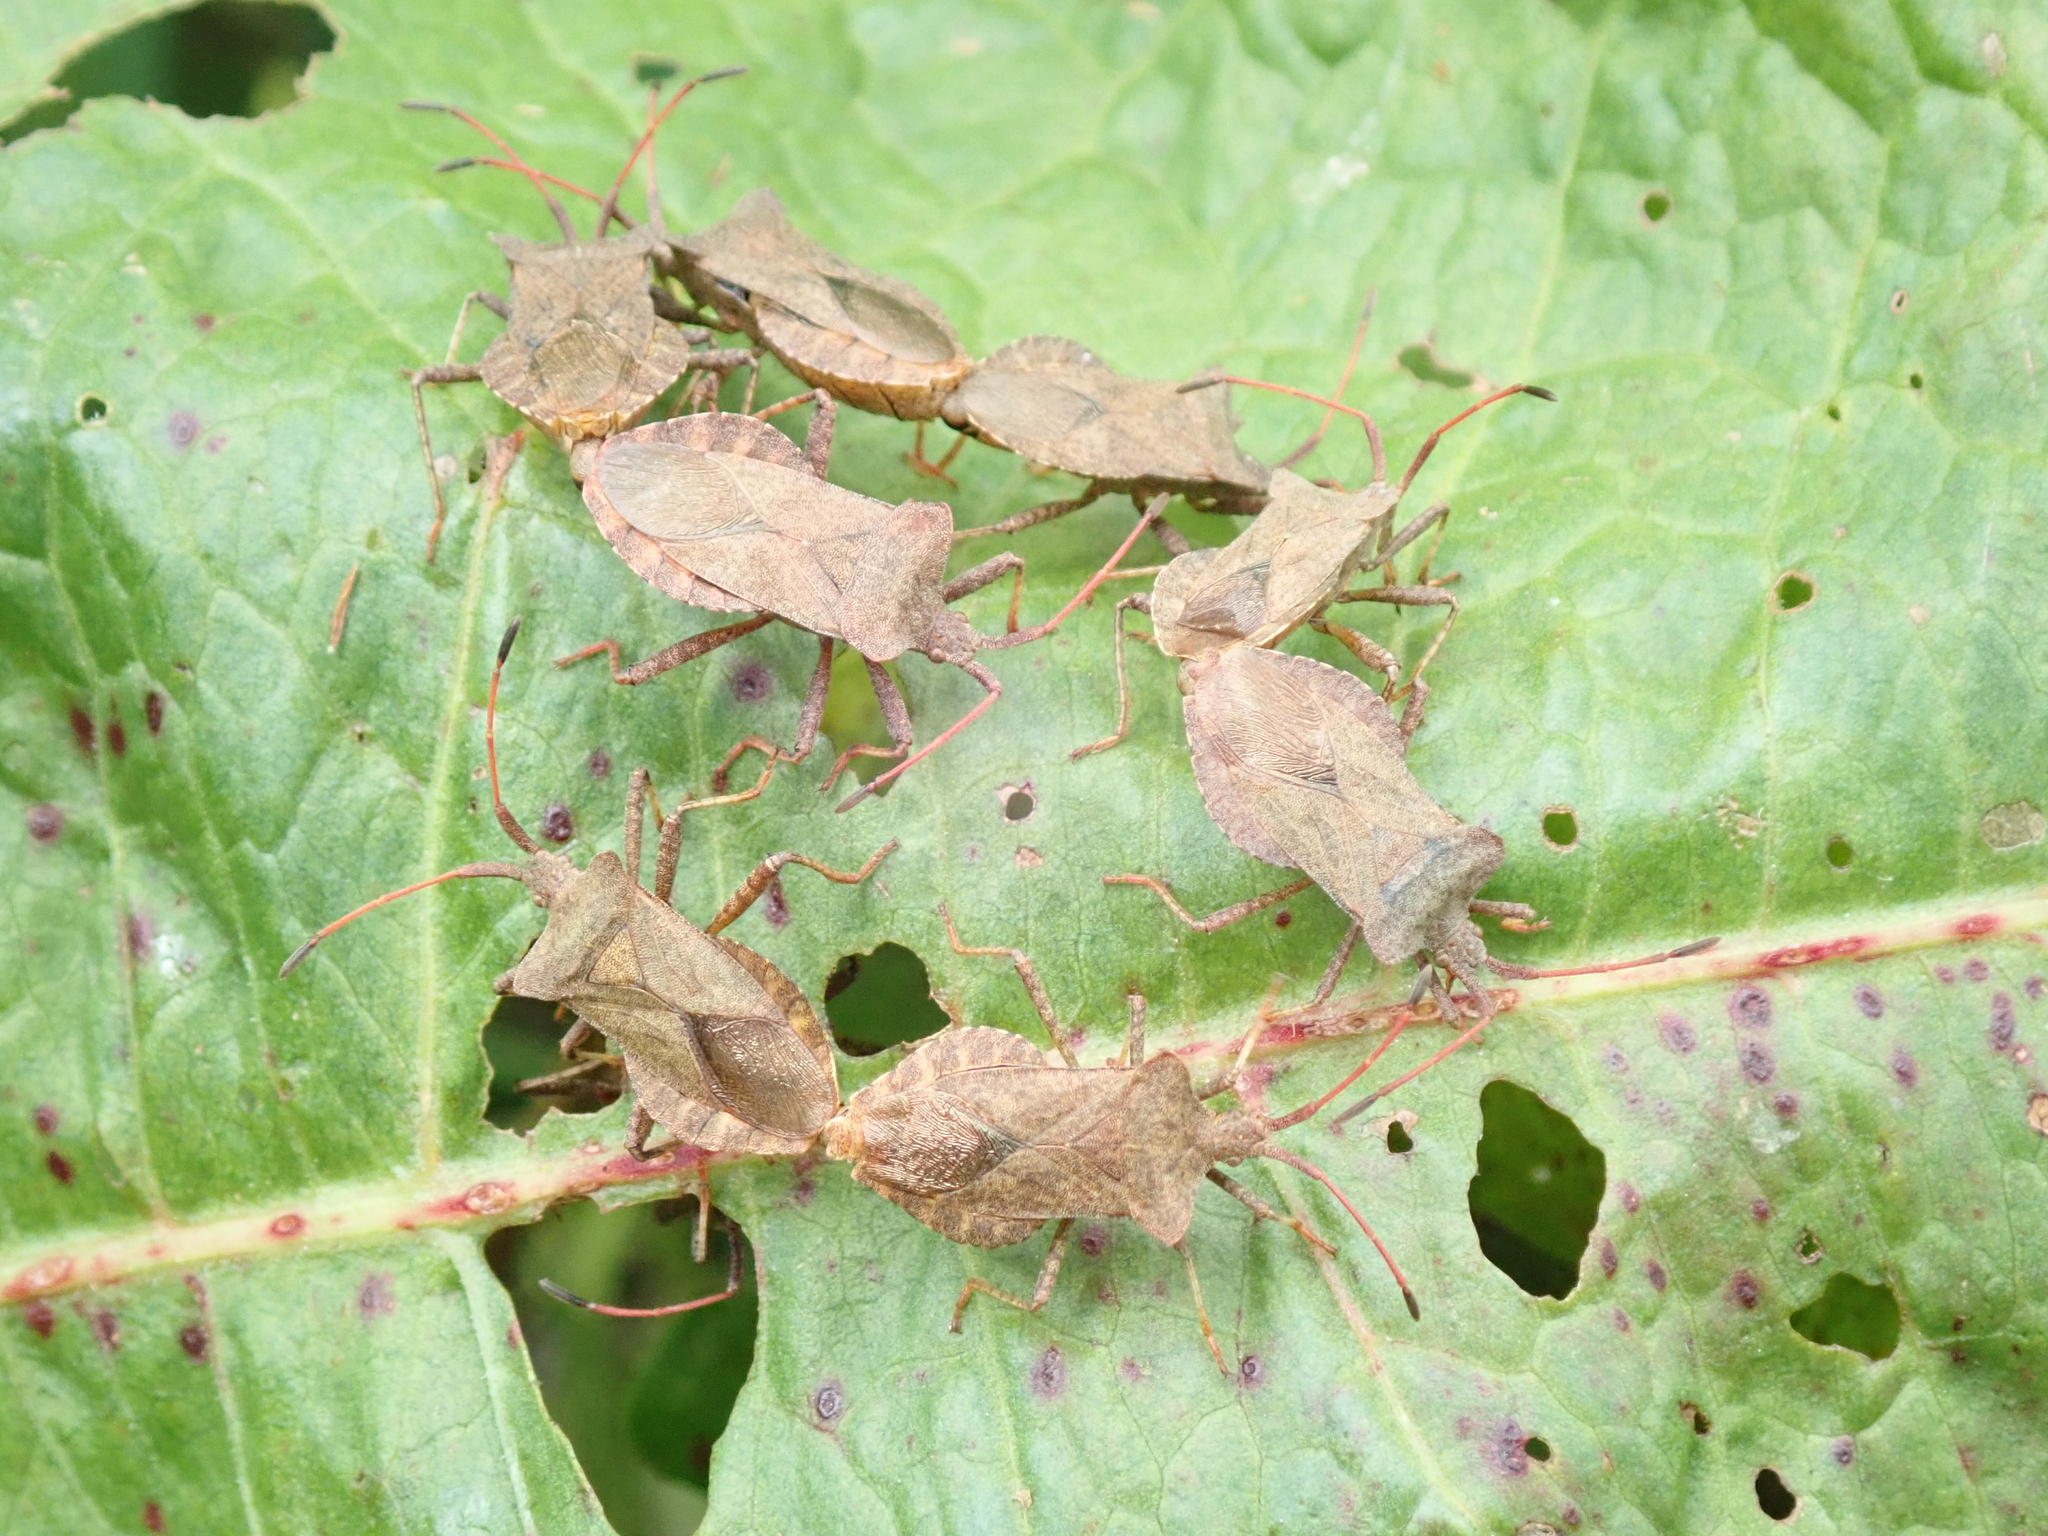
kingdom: Animalia
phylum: Arthropoda
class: Insecta
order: Hemiptera
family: Coreidae
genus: Coreus
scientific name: Coreus marginatus
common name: Dock bug
